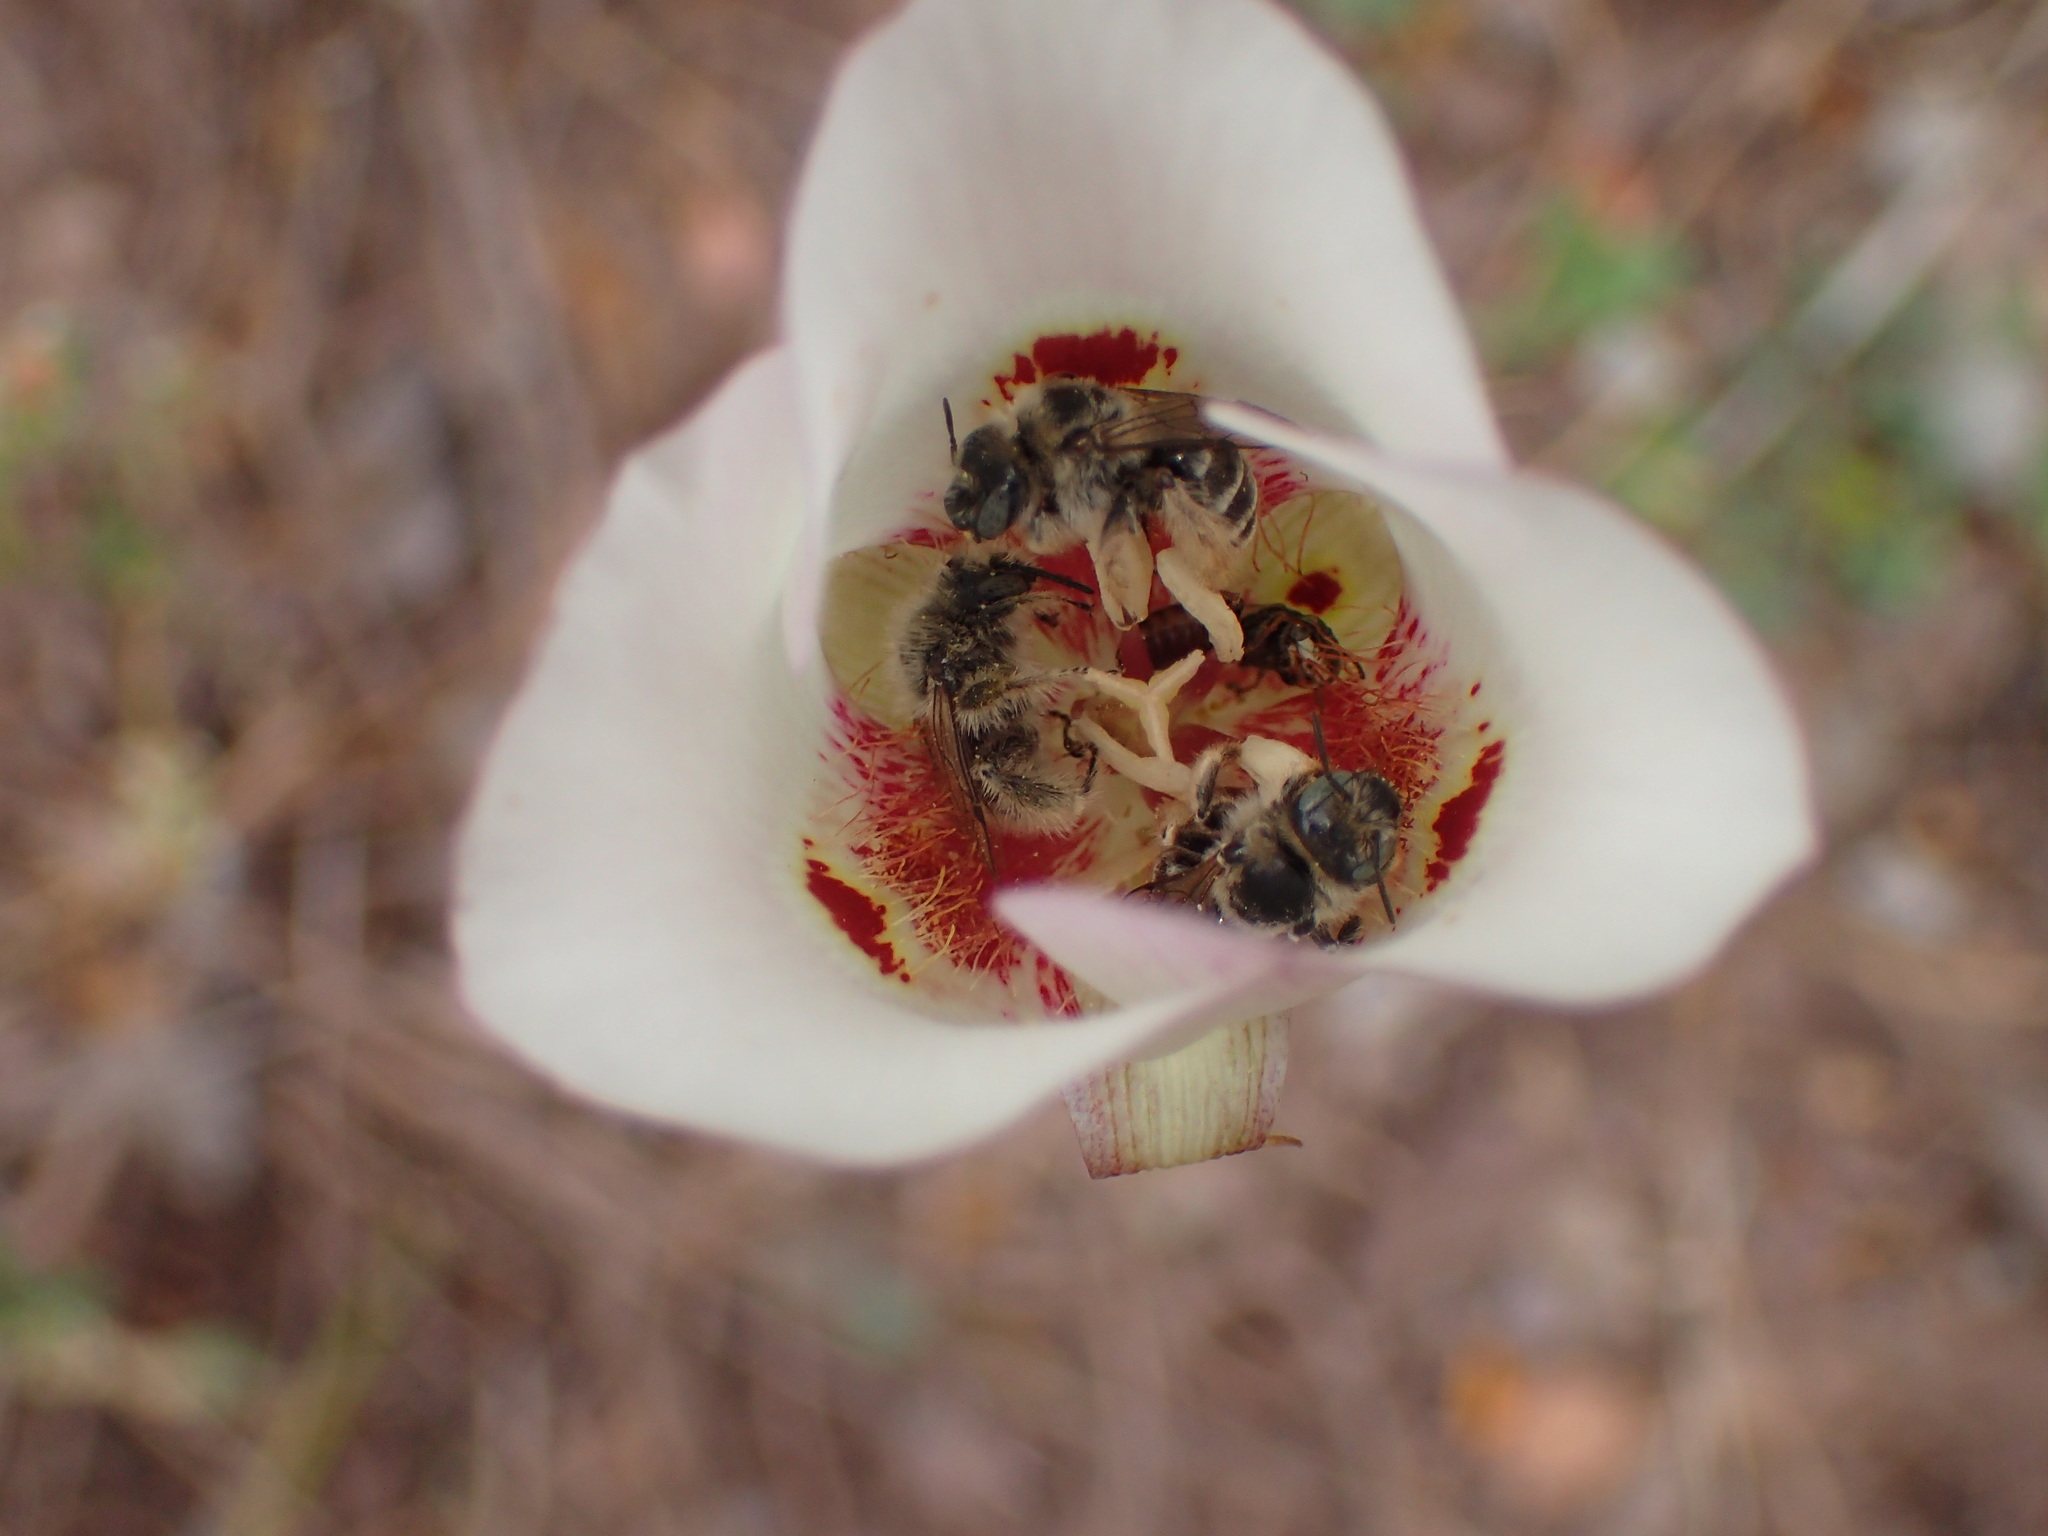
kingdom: Plantae
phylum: Tracheophyta
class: Liliopsida
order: Liliales
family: Liliaceae
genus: Calochortus
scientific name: Calochortus venustus
